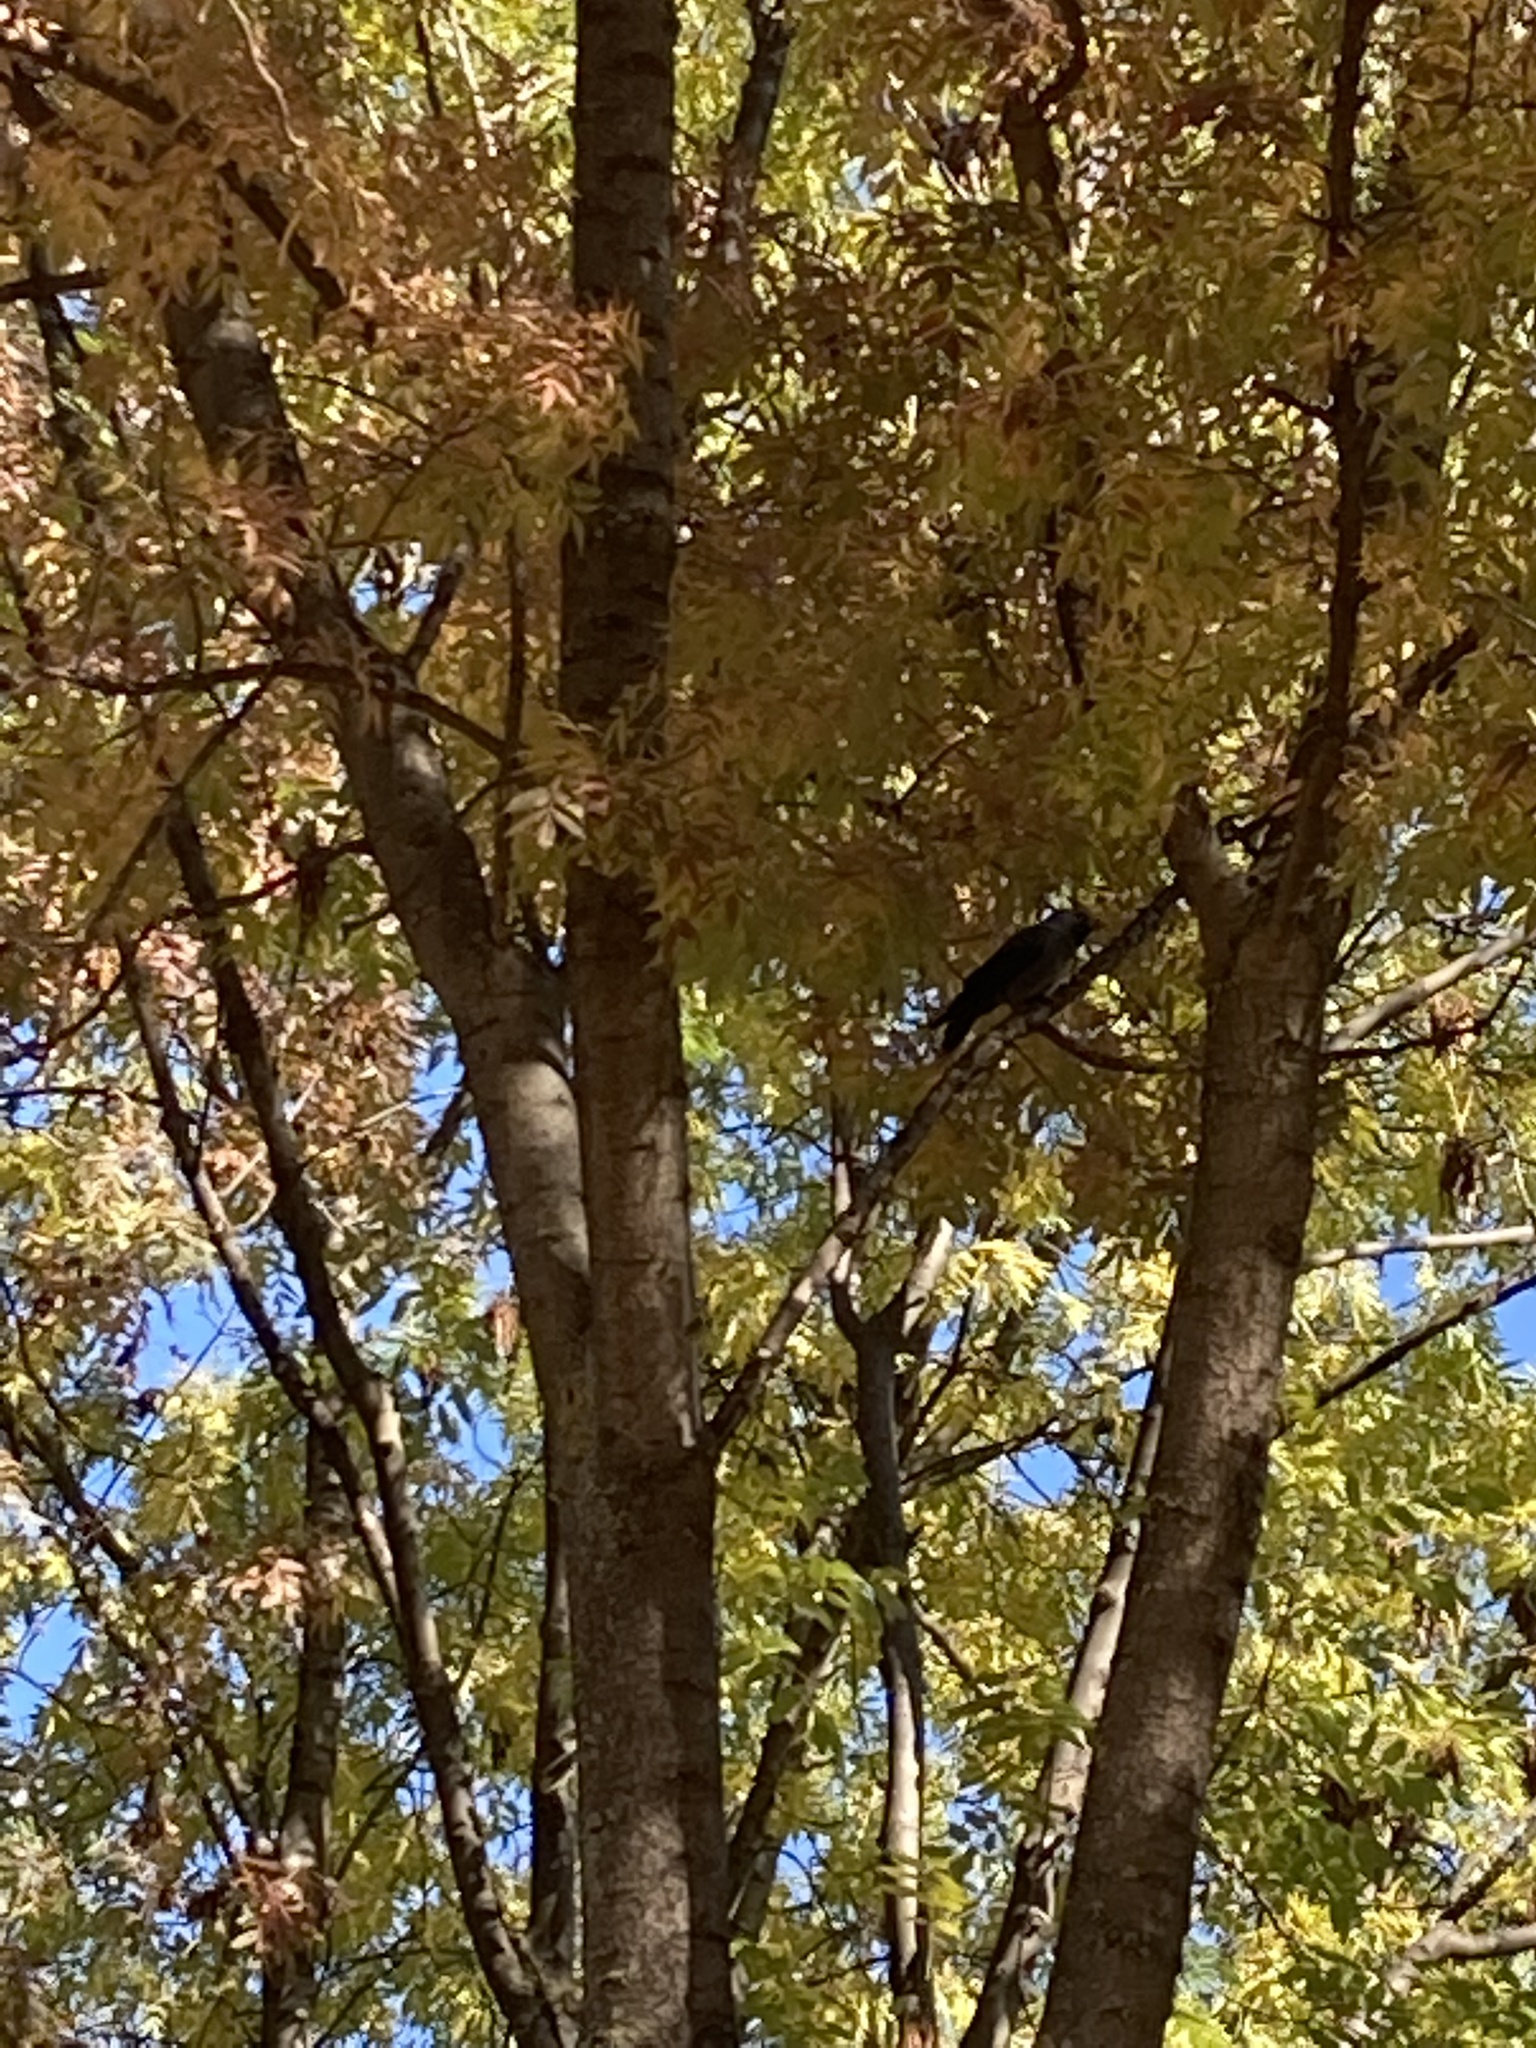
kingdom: Animalia
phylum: Chordata
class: Aves
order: Passeriformes
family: Corvidae
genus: Coloeus
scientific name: Coloeus monedula
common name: Western jackdaw
